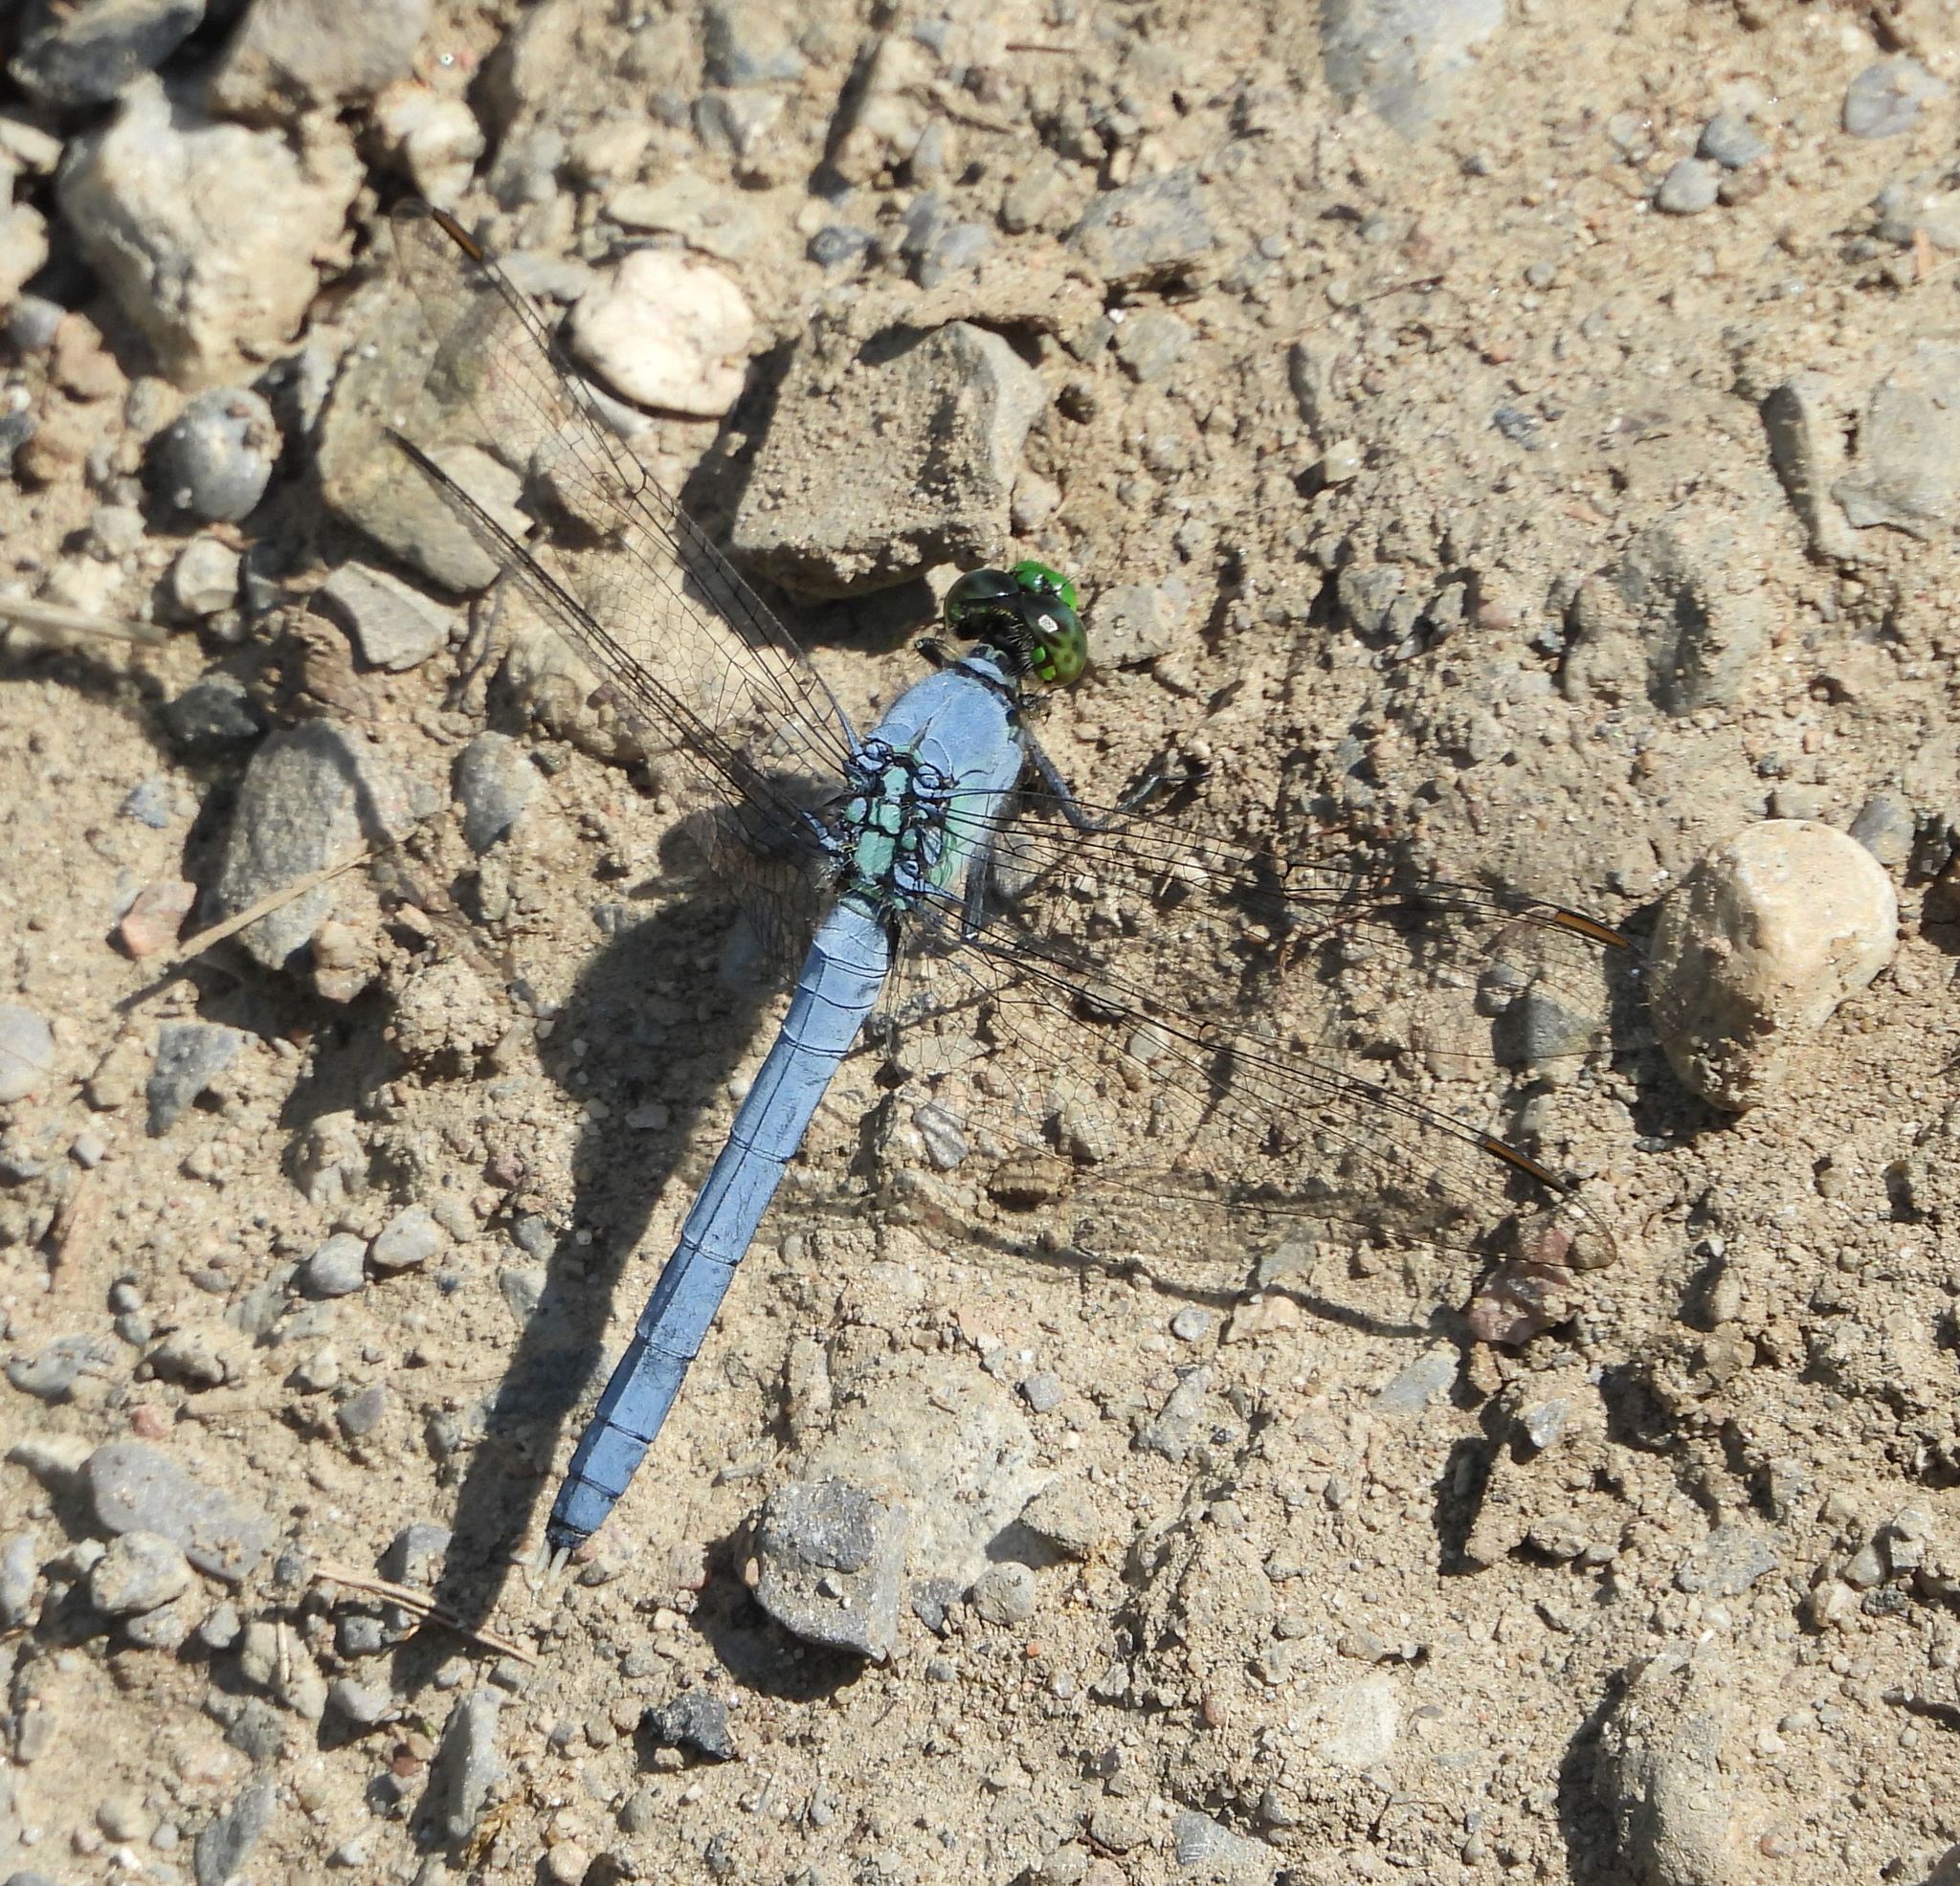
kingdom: Animalia
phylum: Arthropoda
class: Insecta
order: Odonata
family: Libellulidae
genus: Erythemis
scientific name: Erythemis simplicicollis
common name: Eastern pondhawk
